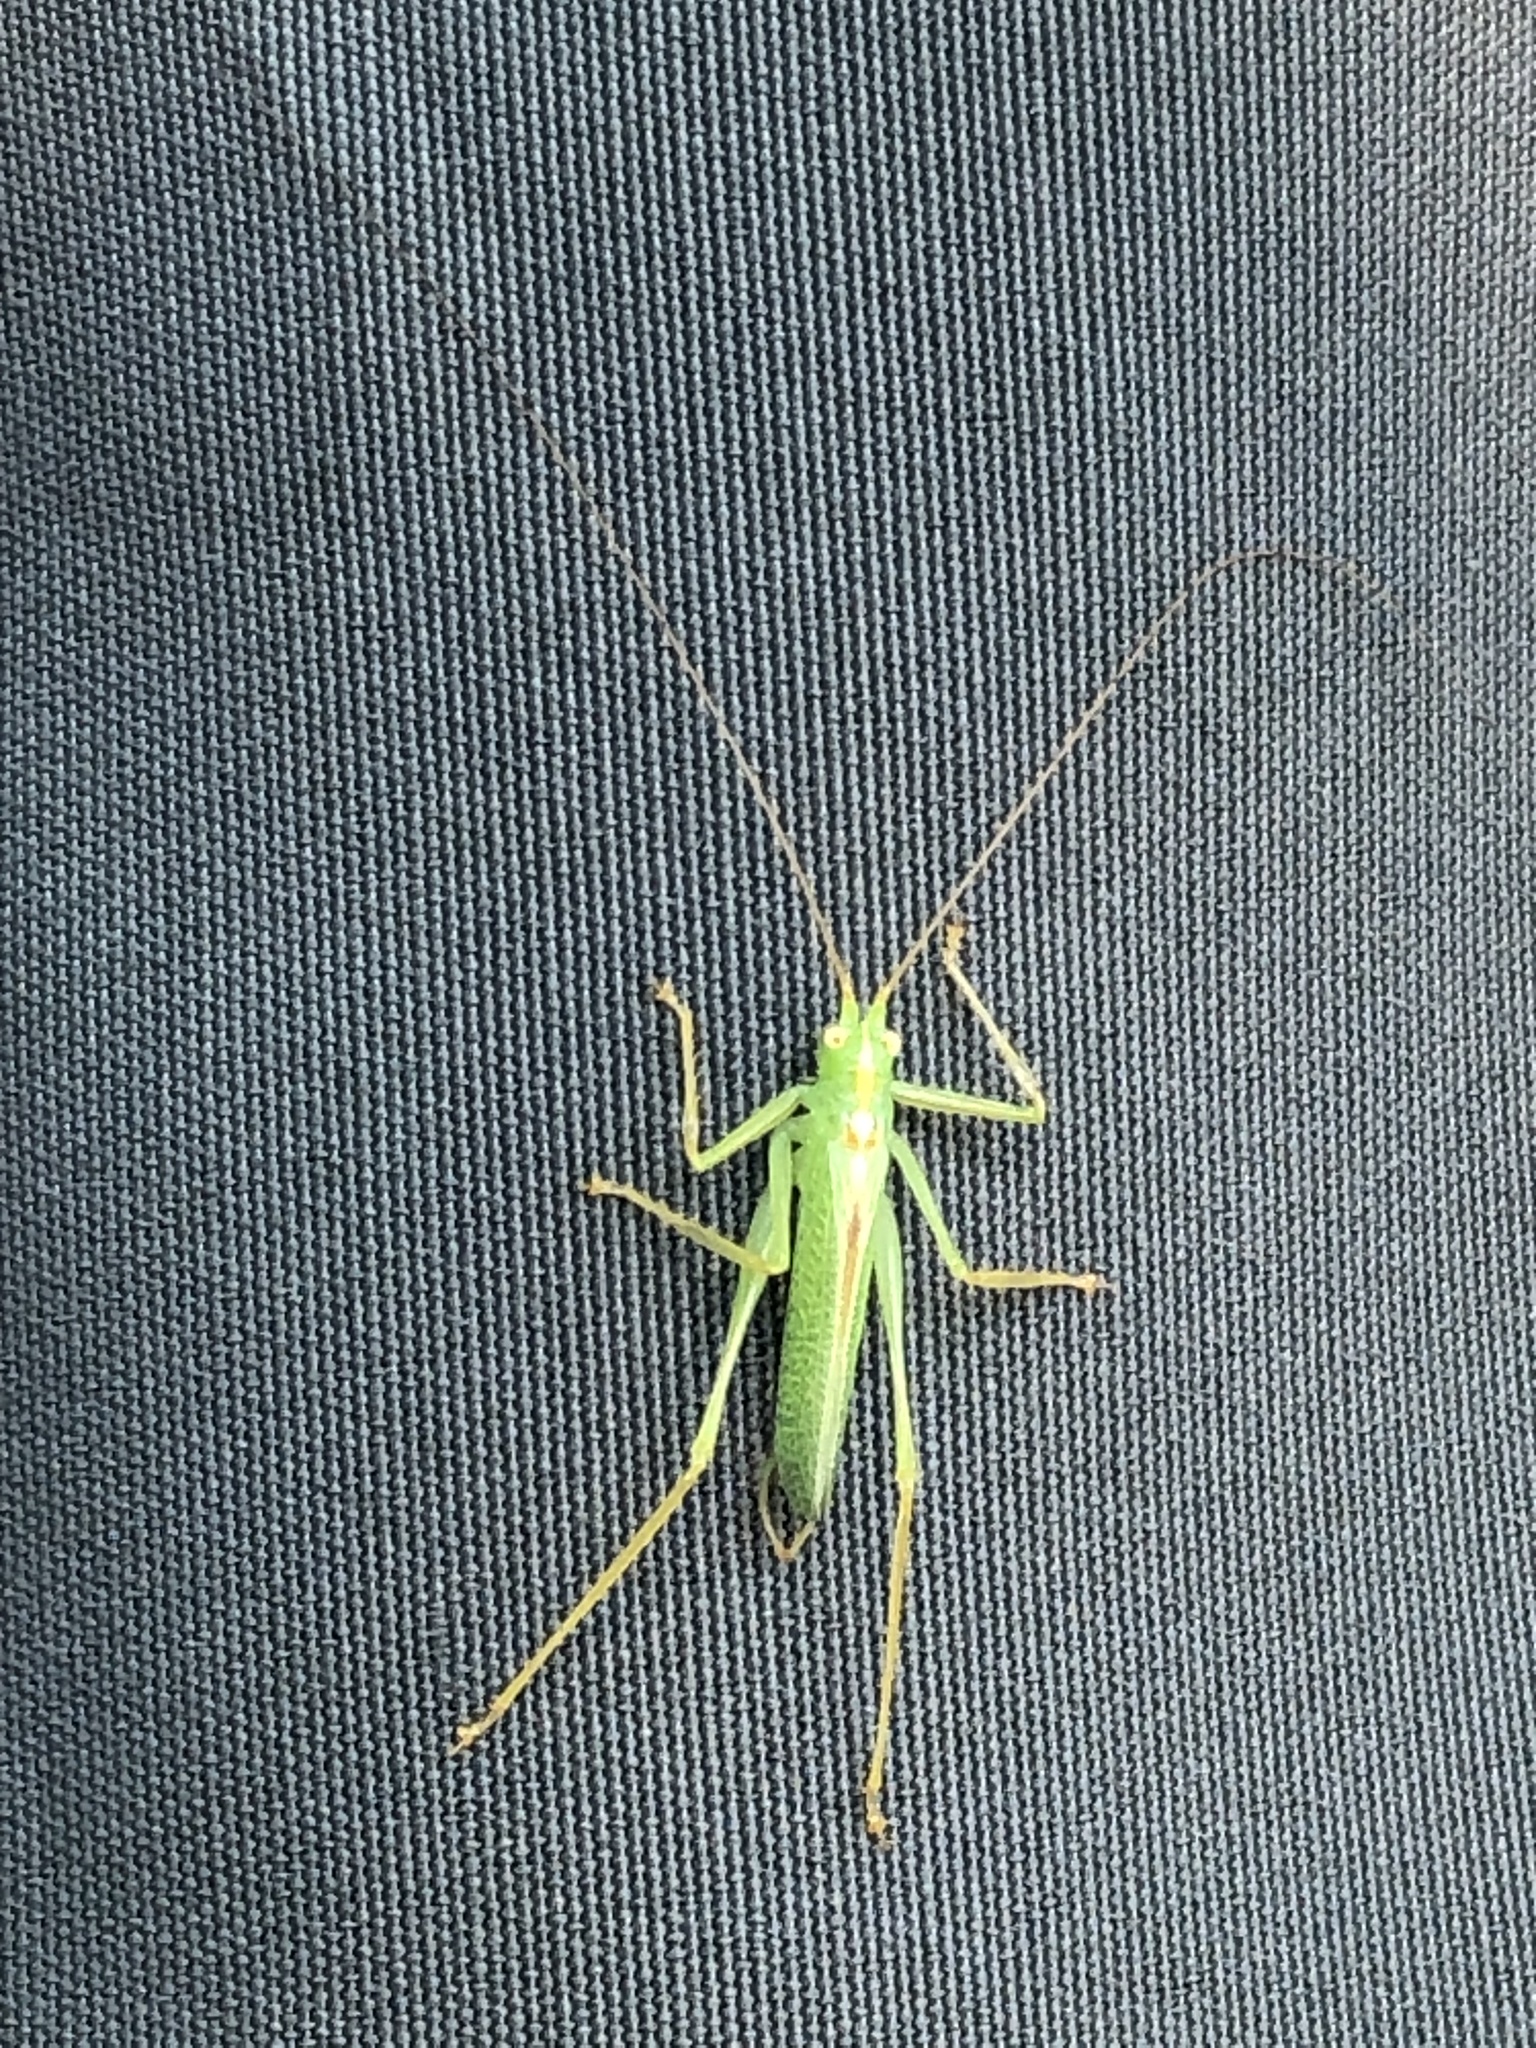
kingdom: Animalia
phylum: Arthropoda
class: Insecta
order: Orthoptera
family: Tettigoniidae
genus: Meconema
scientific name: Meconema thalassinum
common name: Oak bush-cricket
